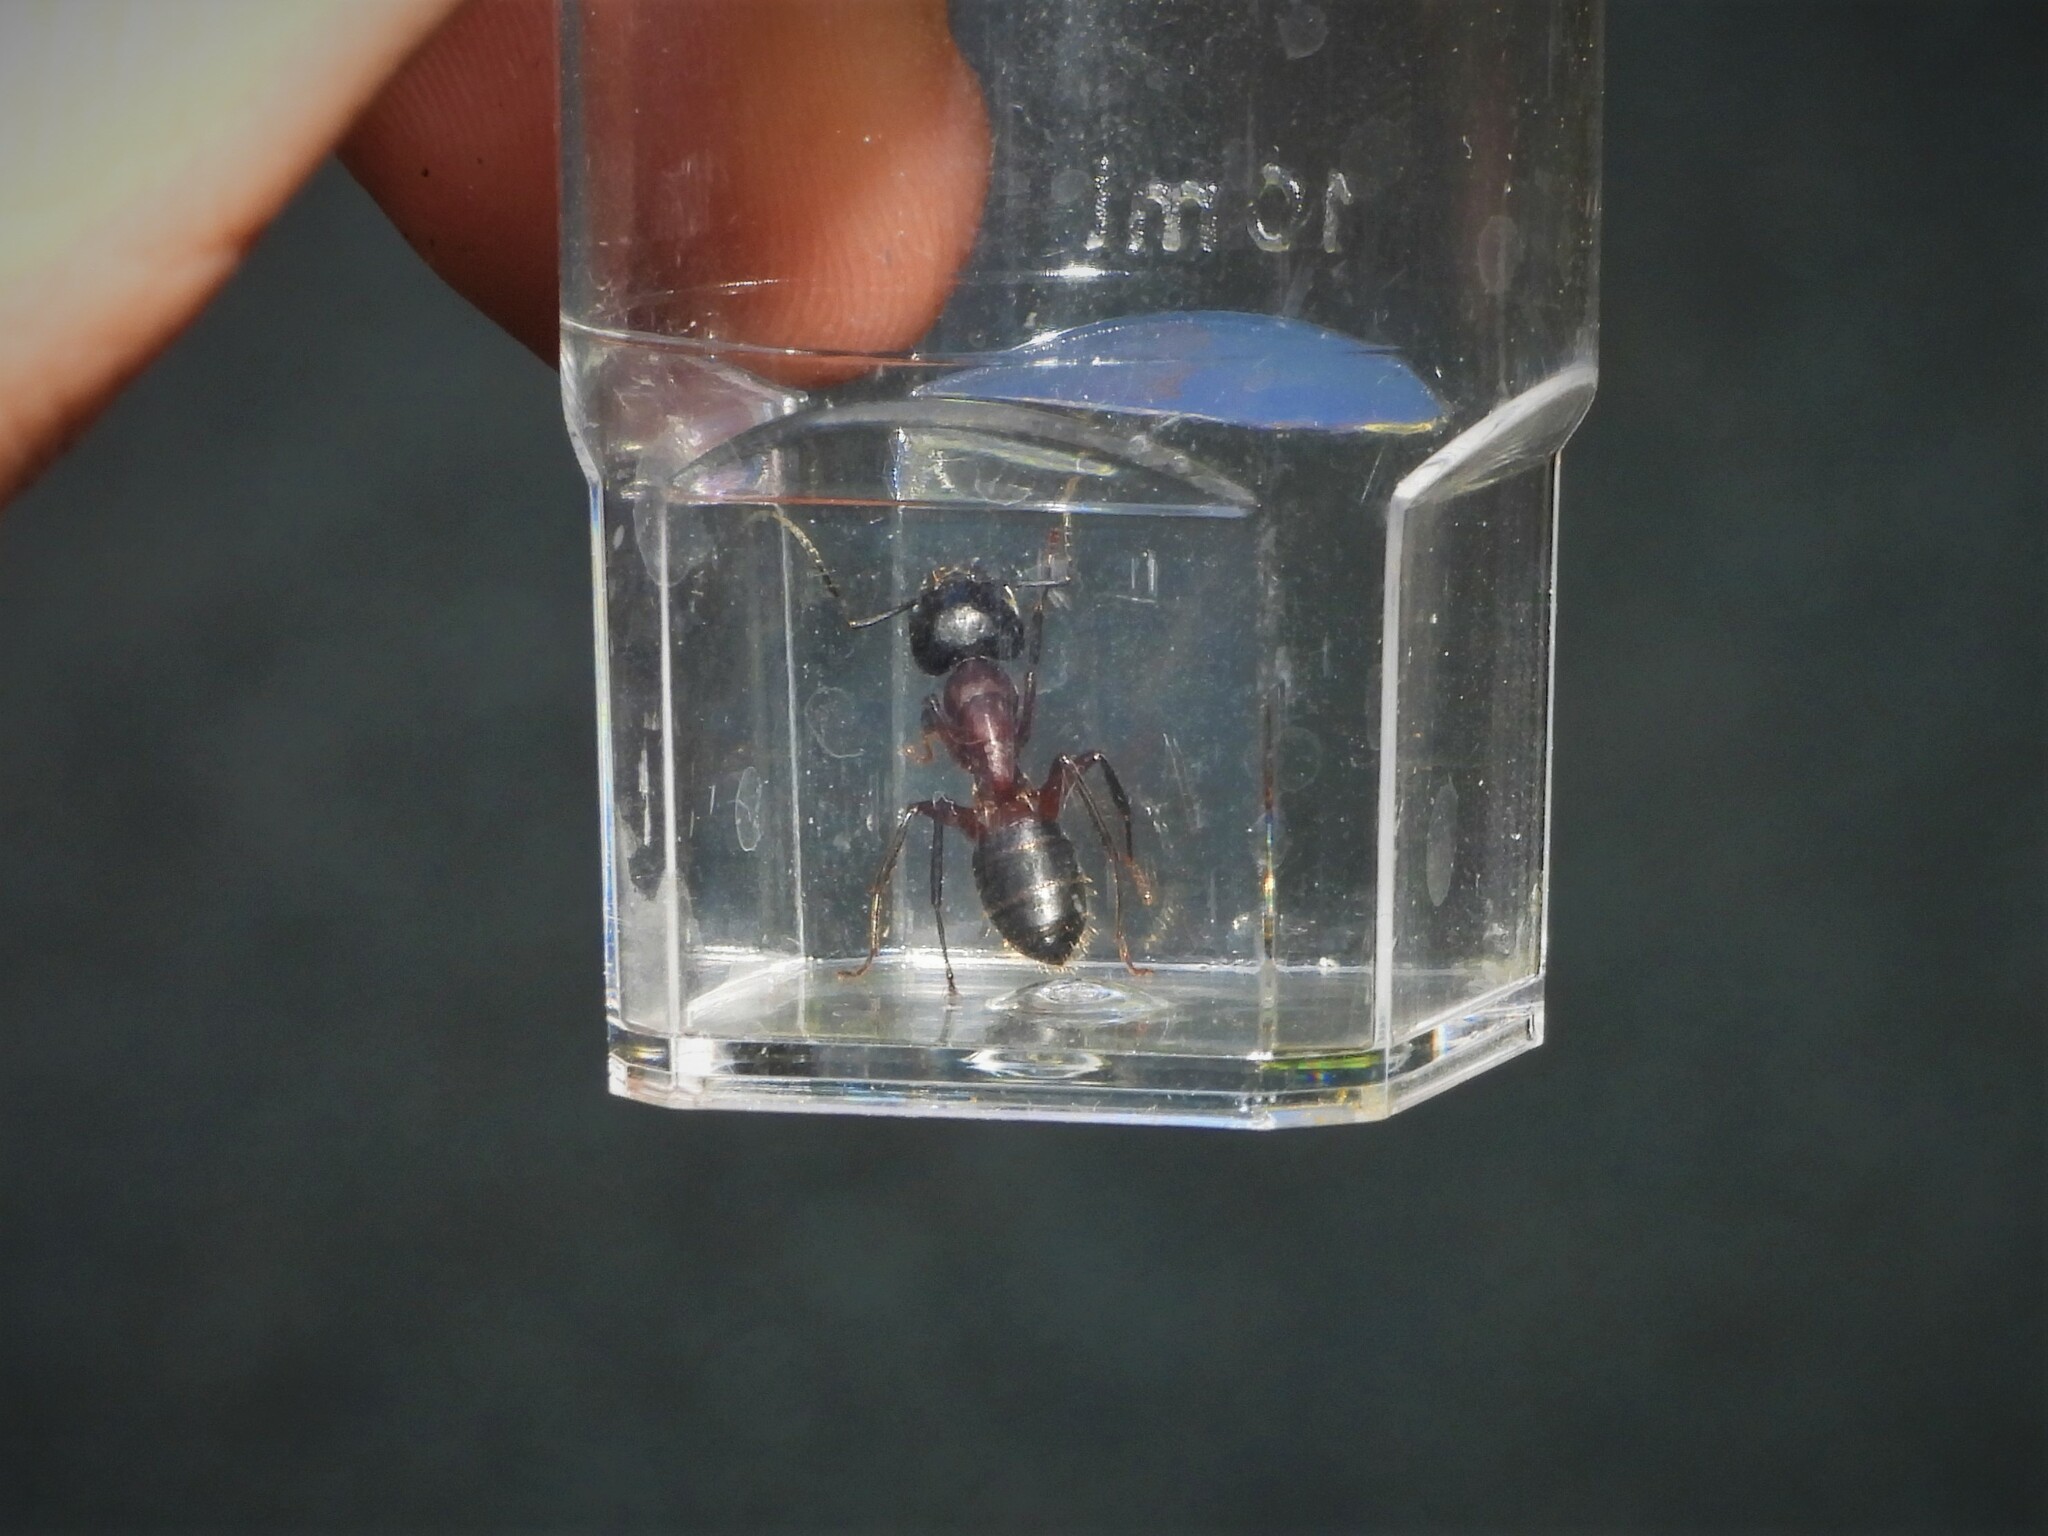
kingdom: Animalia
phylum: Arthropoda
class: Insecta
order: Hymenoptera
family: Formicidae
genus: Camponotus
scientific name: Camponotus ligniperdus
